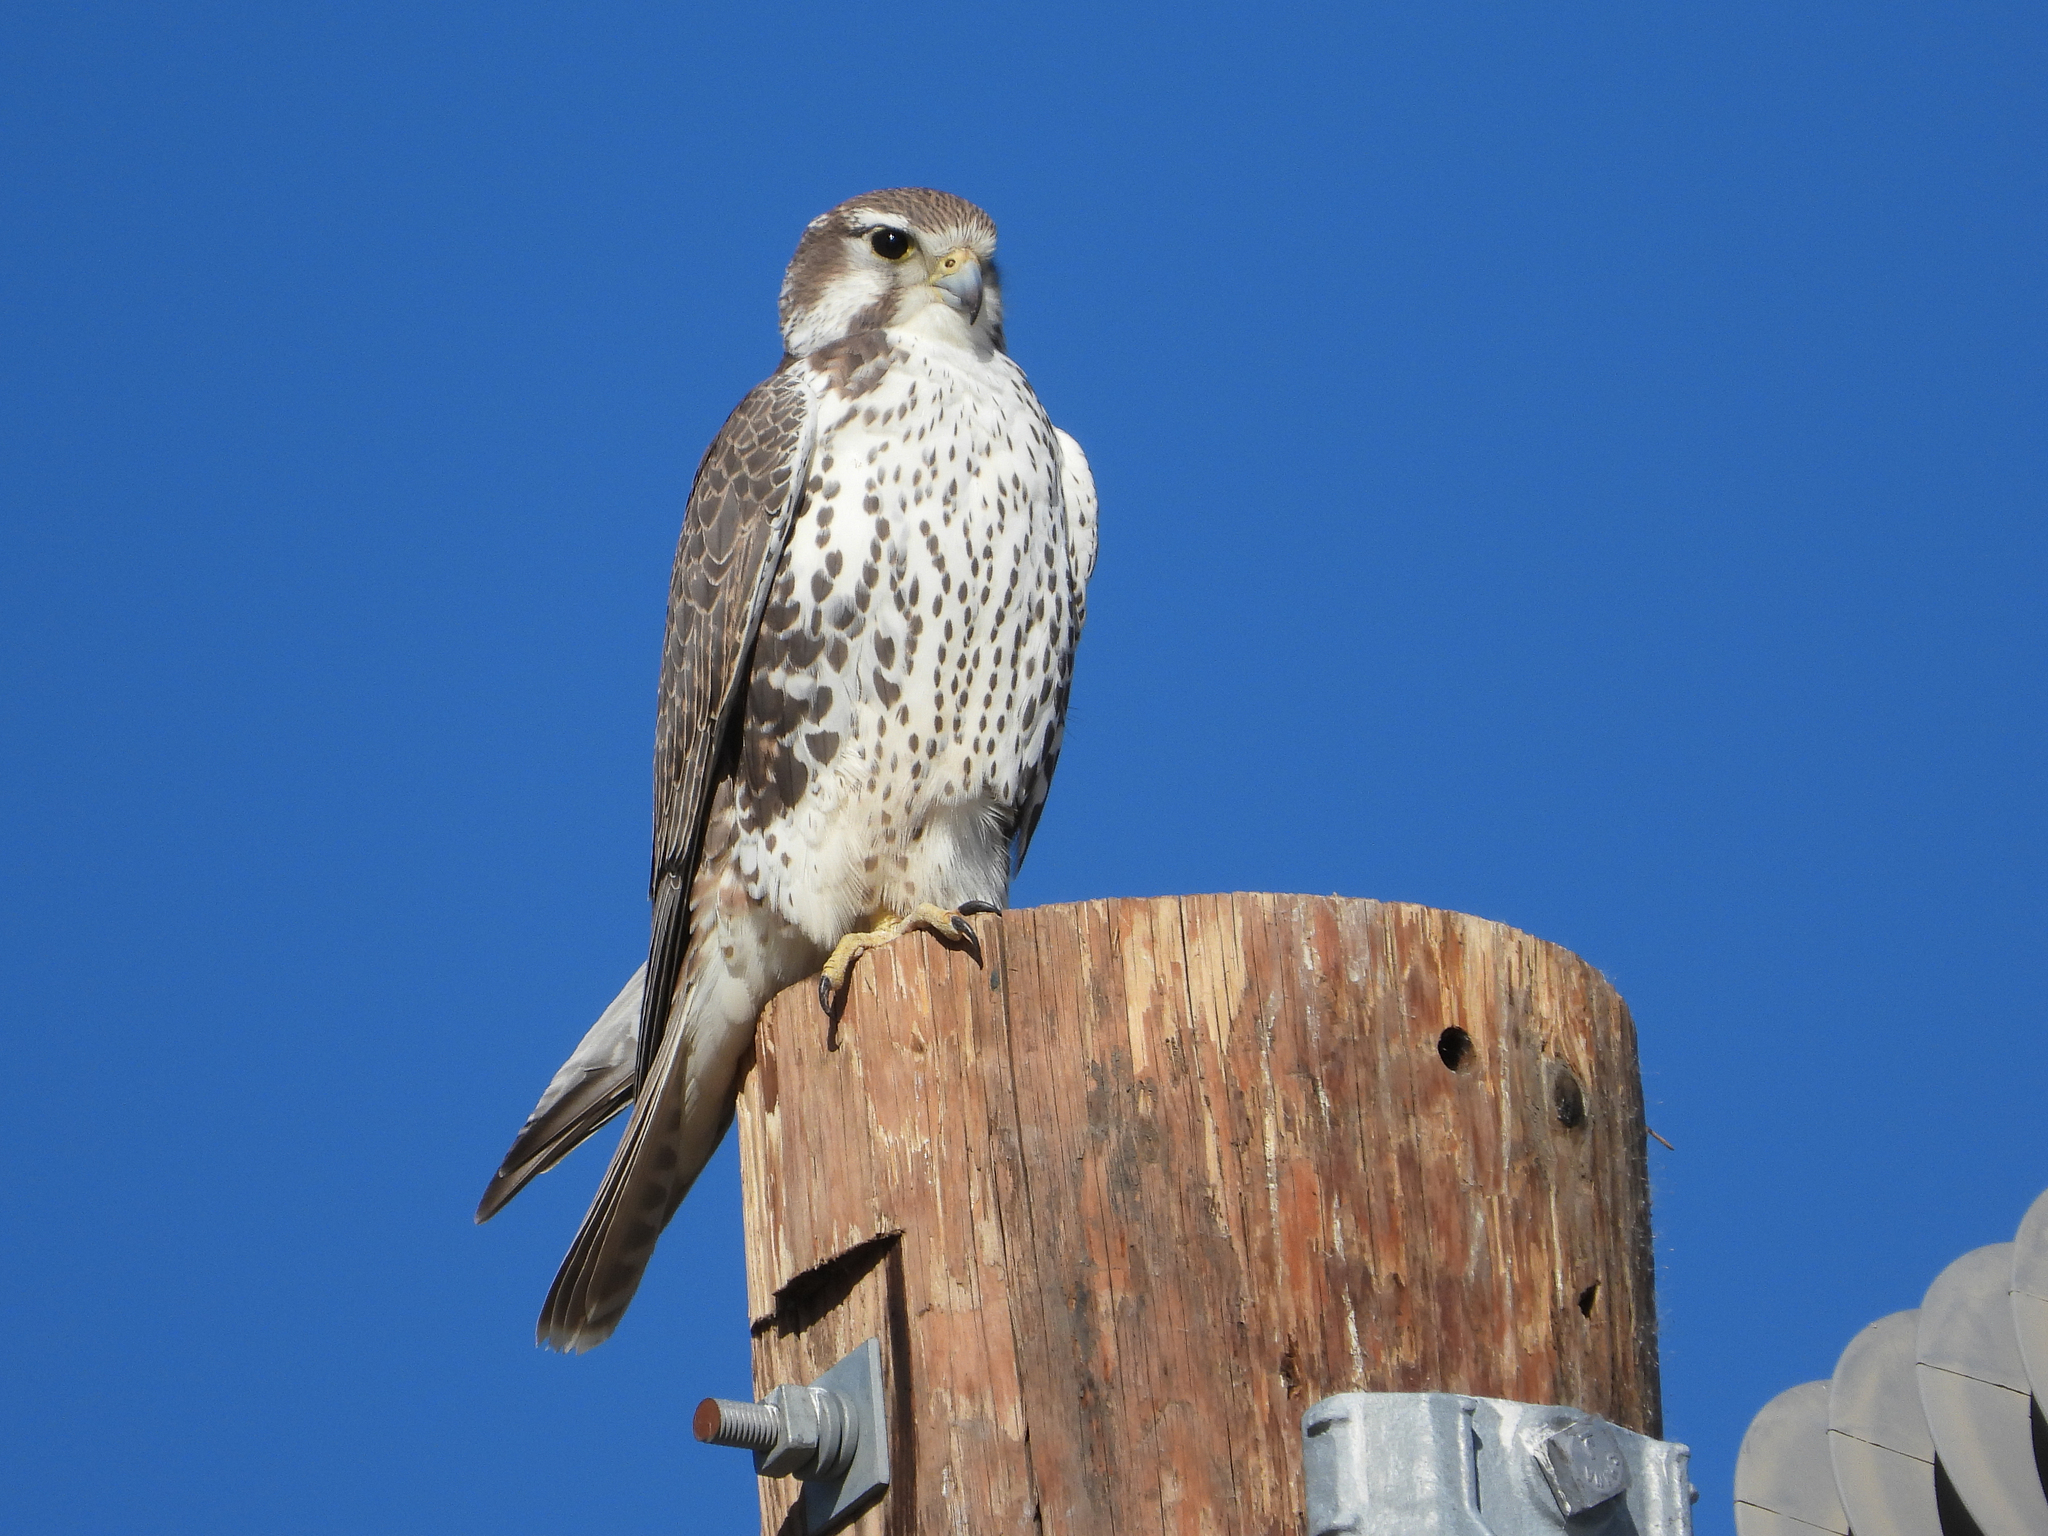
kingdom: Animalia
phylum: Chordata
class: Aves
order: Falconiformes
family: Falconidae
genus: Falco
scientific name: Falco mexicanus
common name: Prairie falcon
